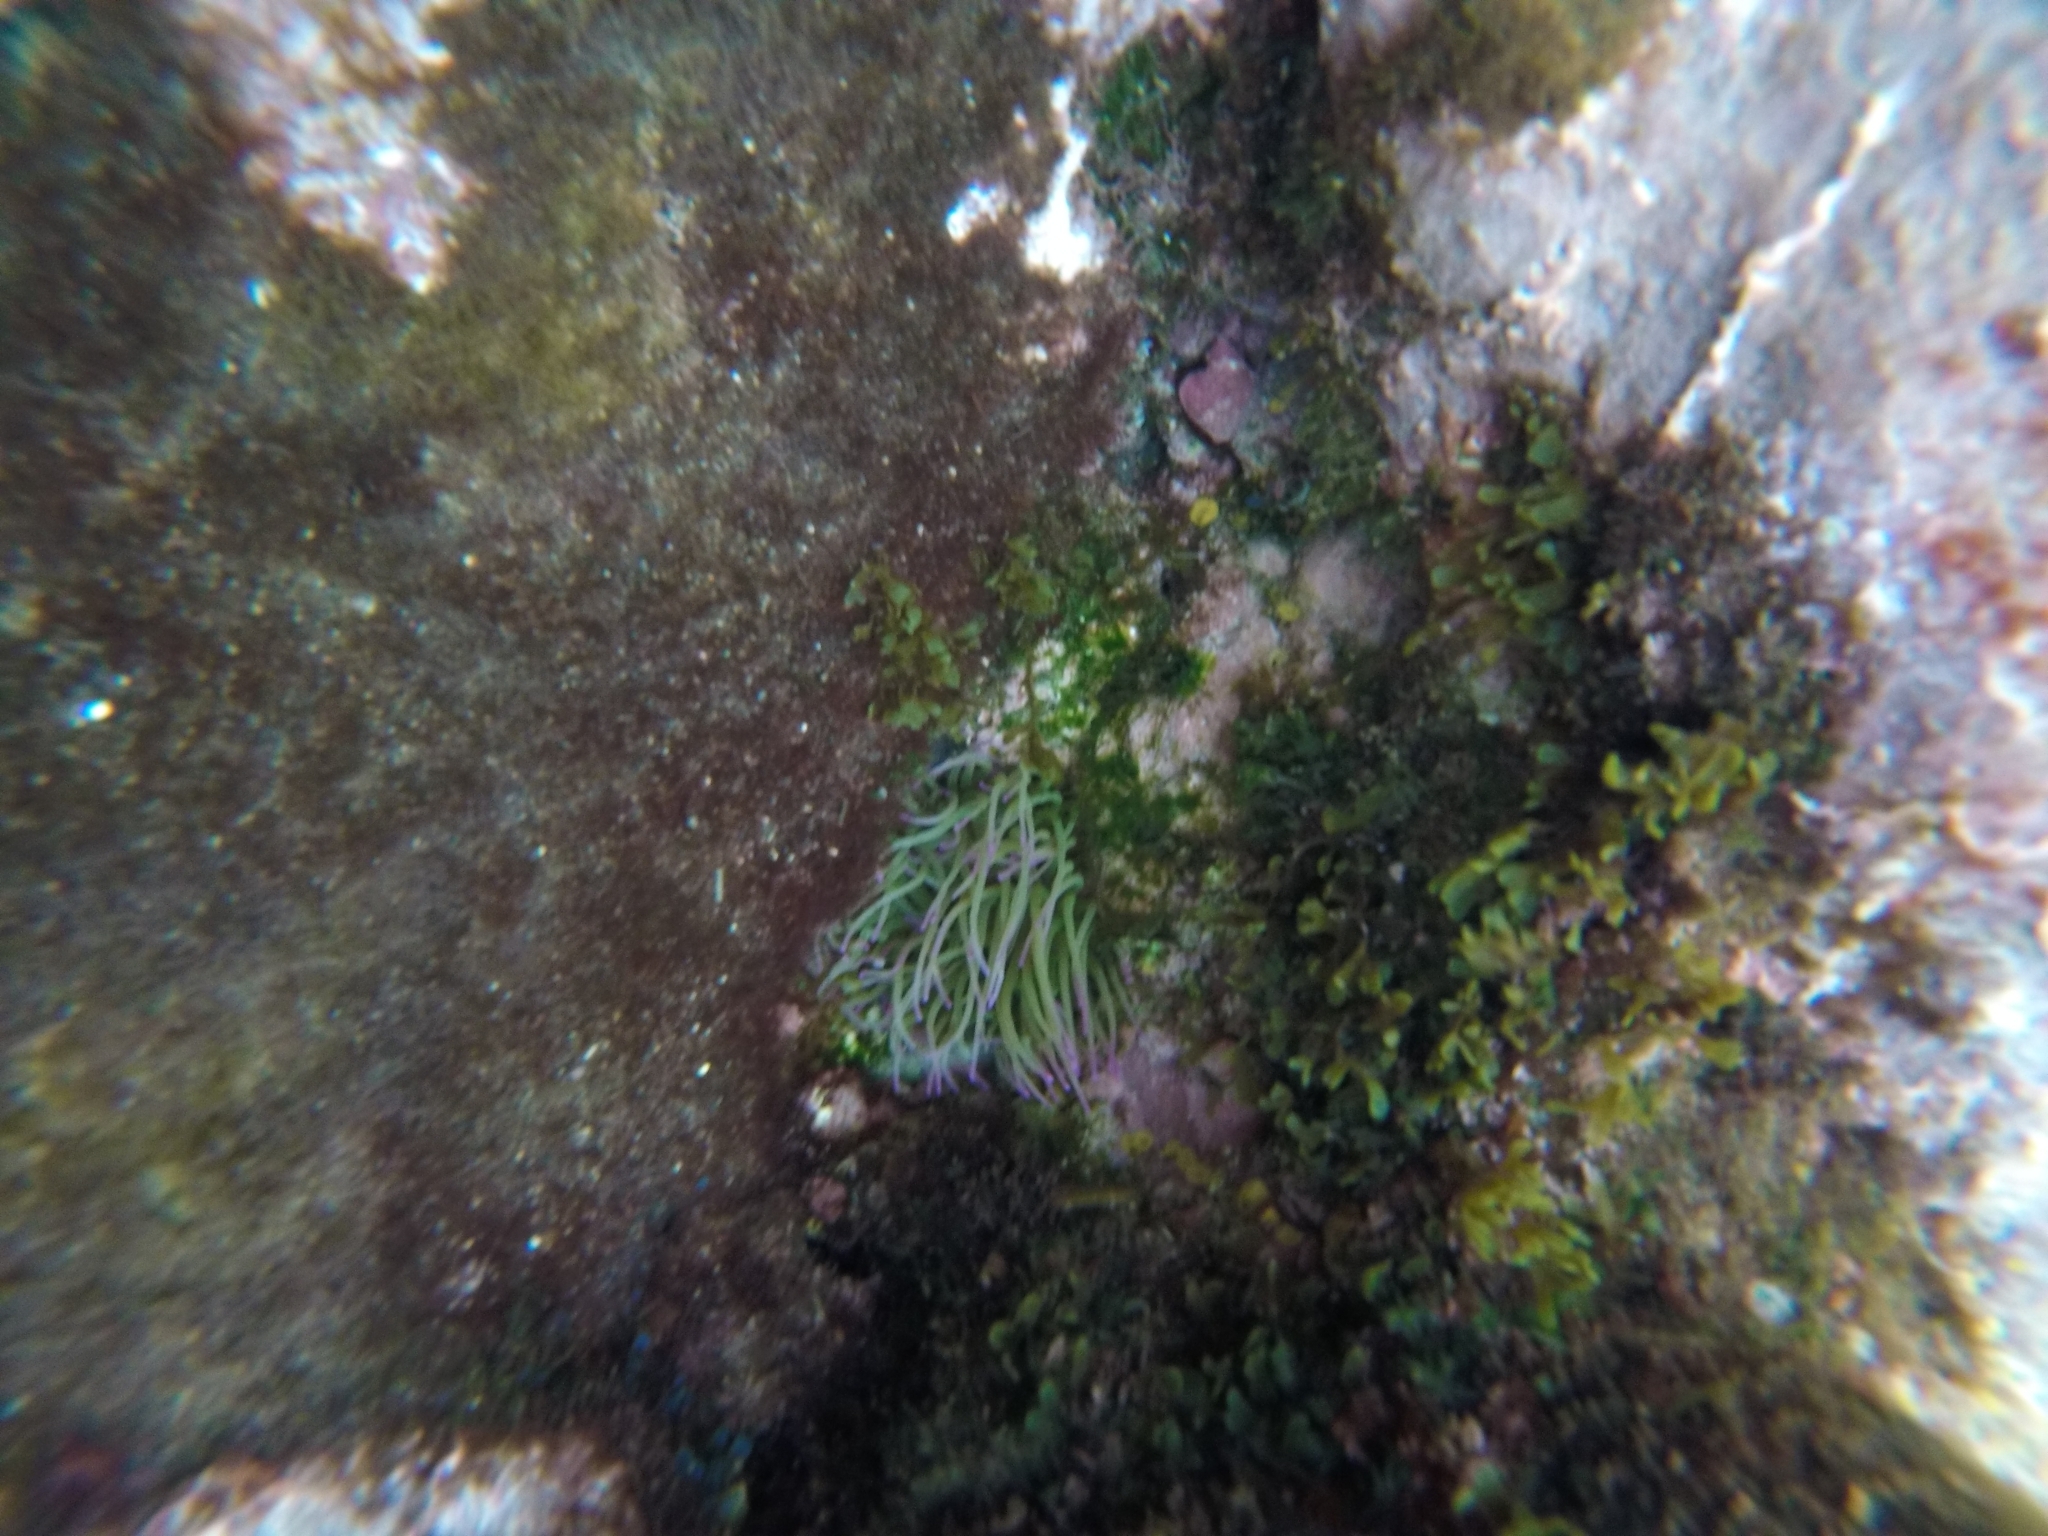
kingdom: Animalia
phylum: Cnidaria
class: Anthozoa
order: Actiniaria
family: Actiniidae
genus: Anemonia
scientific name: Anemonia viridis
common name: Snakelocks anemone
